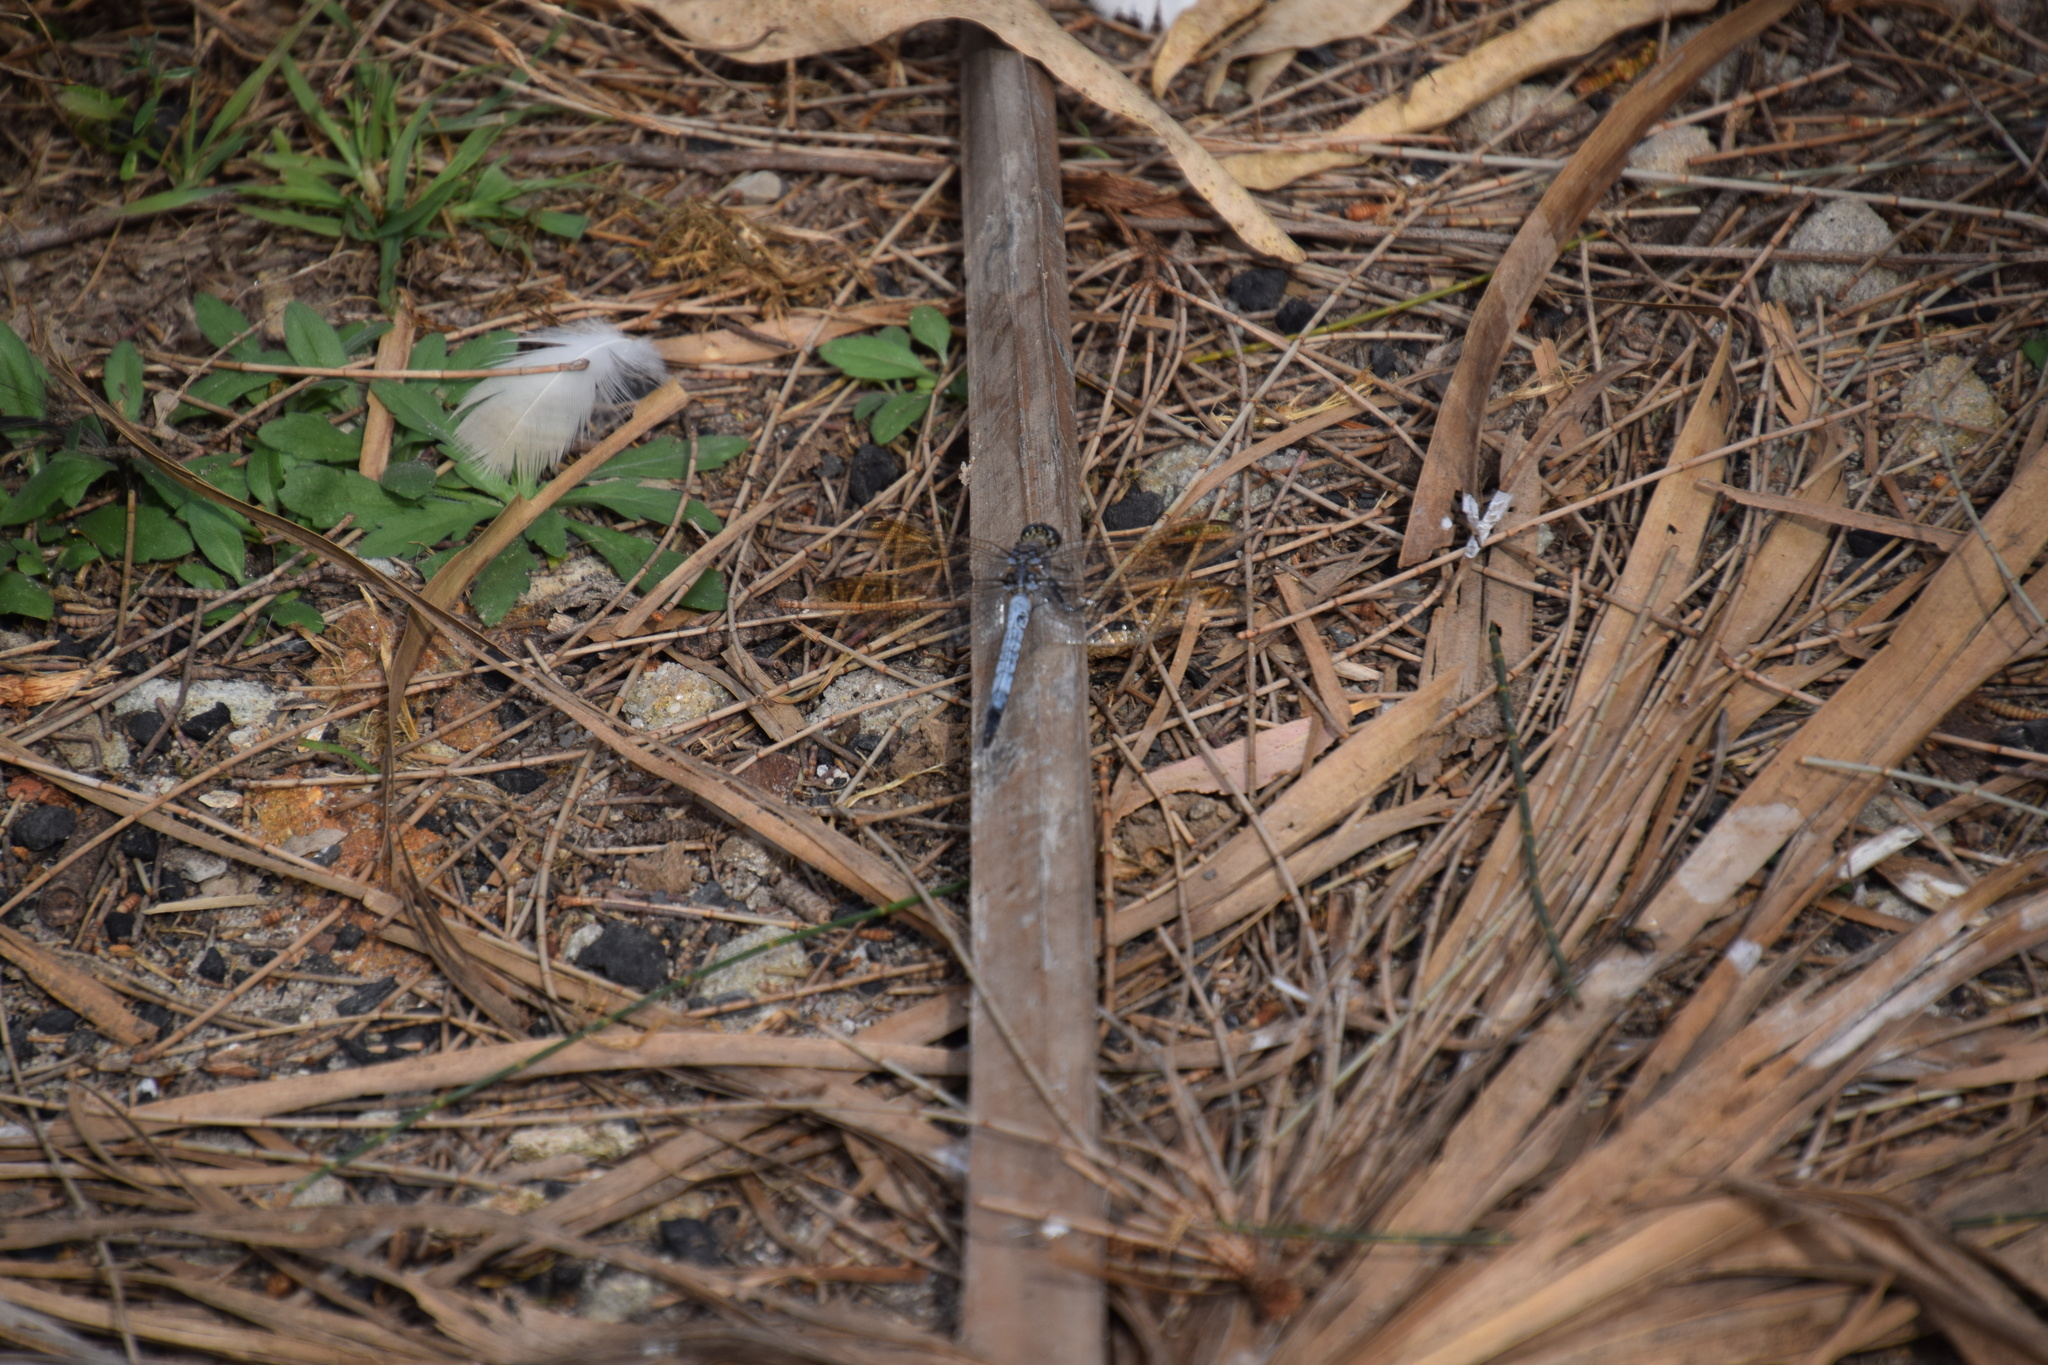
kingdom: Animalia
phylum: Arthropoda
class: Insecta
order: Odonata
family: Libellulidae
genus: Orthetrum
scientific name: Orthetrum caledonicum
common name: Blue skimmer
